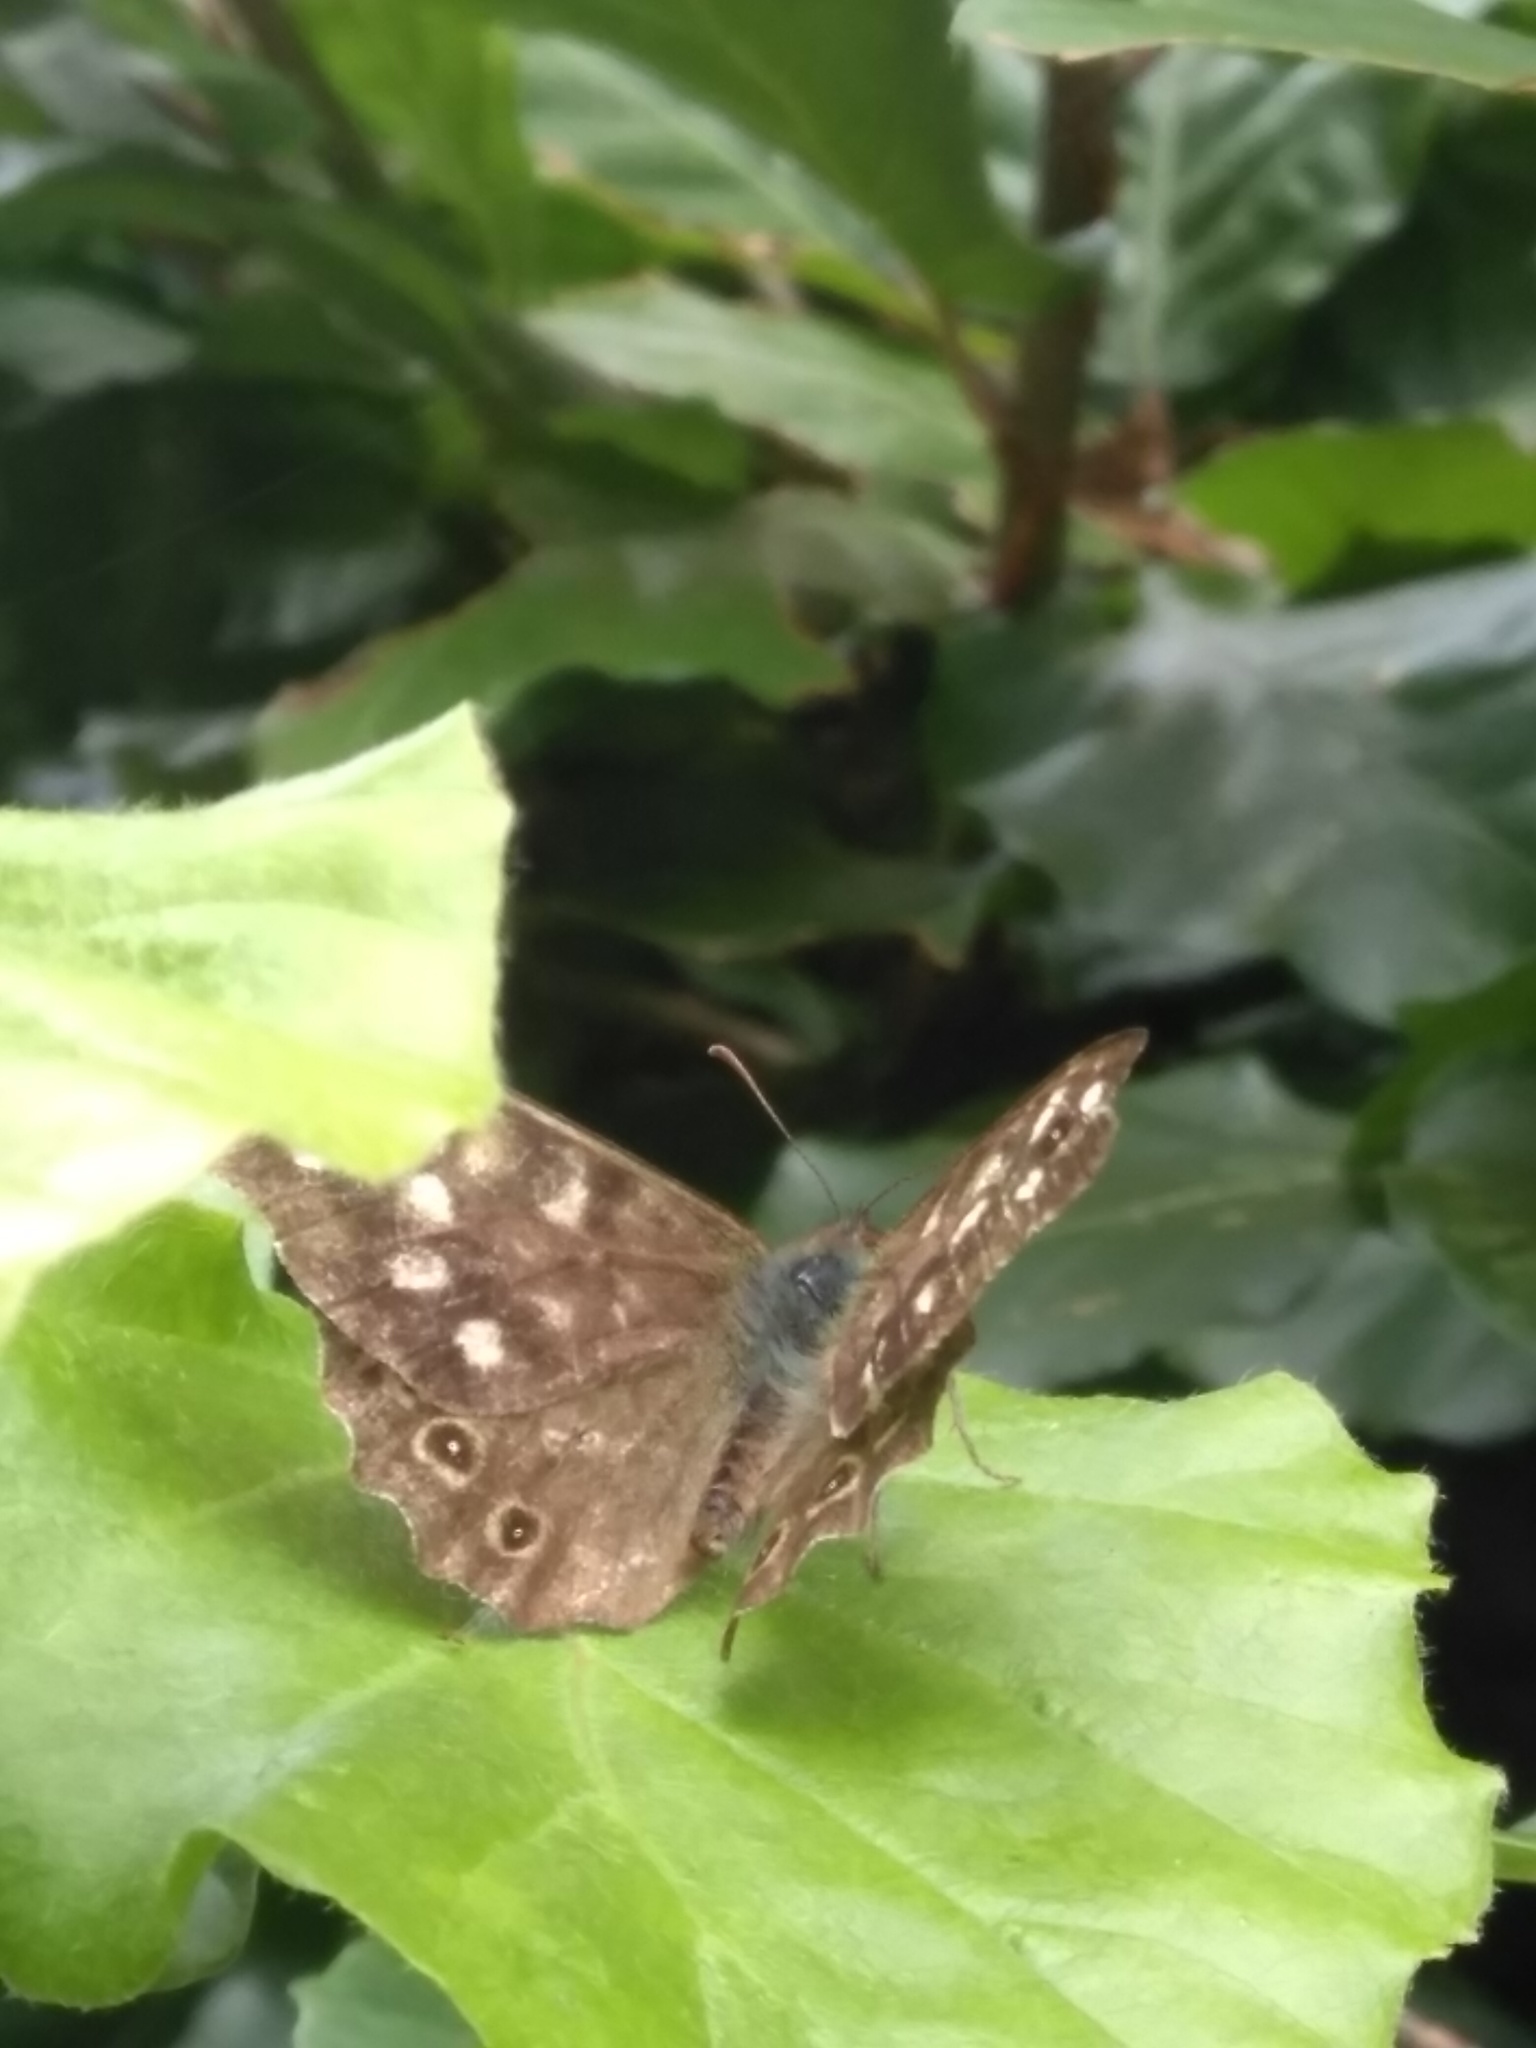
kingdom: Animalia
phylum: Arthropoda
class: Insecta
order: Lepidoptera
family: Nymphalidae
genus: Pararge
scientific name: Pararge aegeria
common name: Speckled wood
